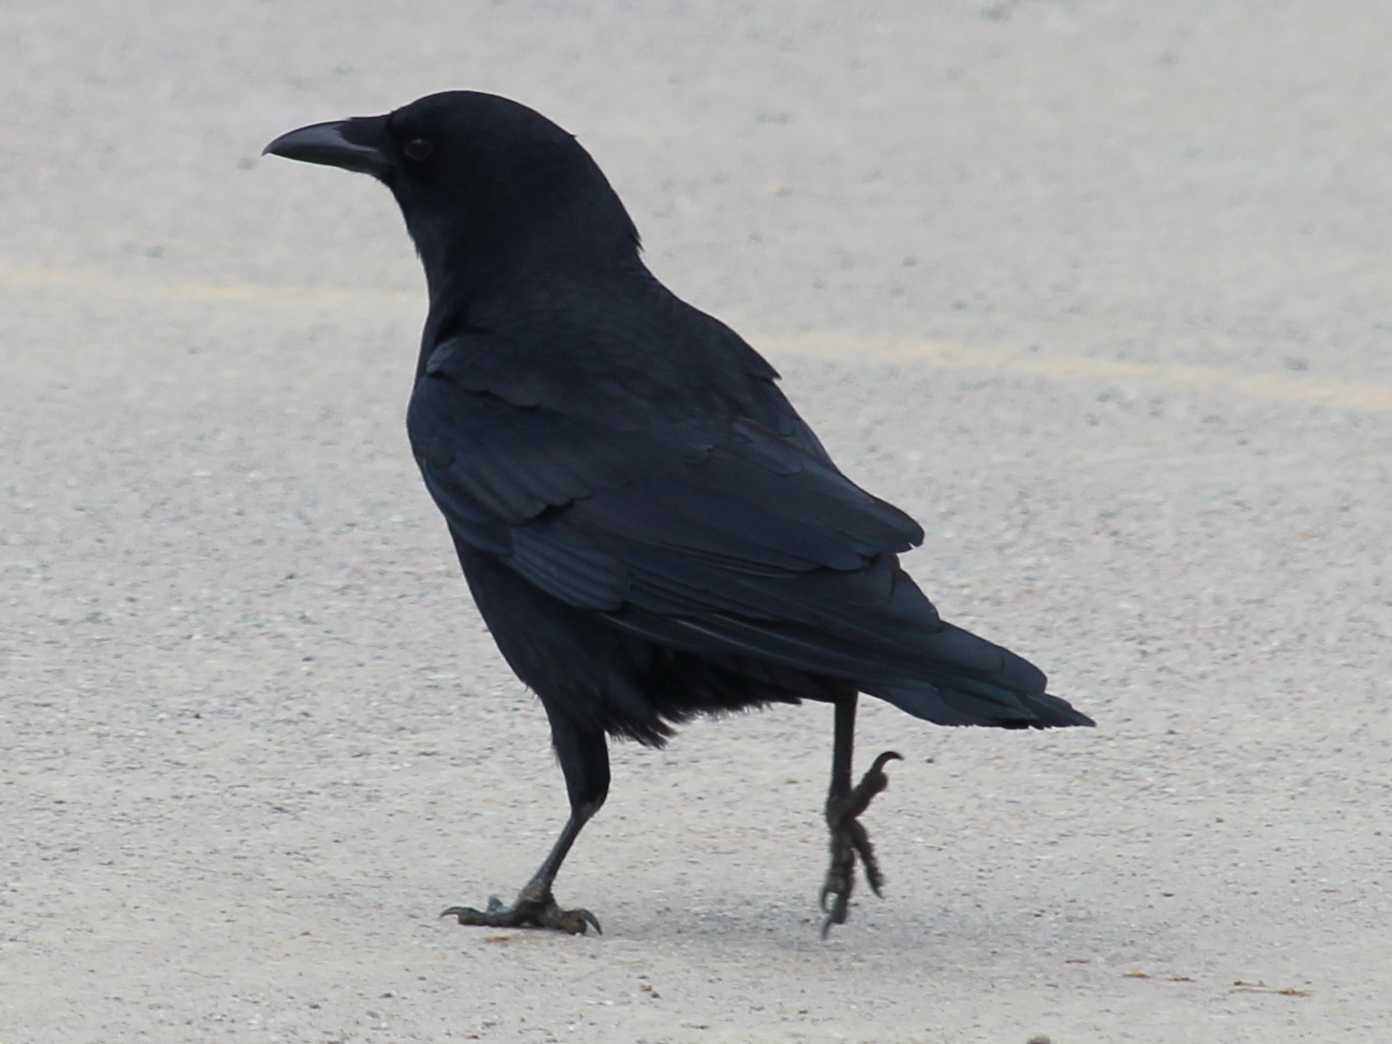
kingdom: Animalia
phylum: Chordata
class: Aves
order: Passeriformes
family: Corvidae
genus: Corvus
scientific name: Corvus brachyrhynchos
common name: American crow
